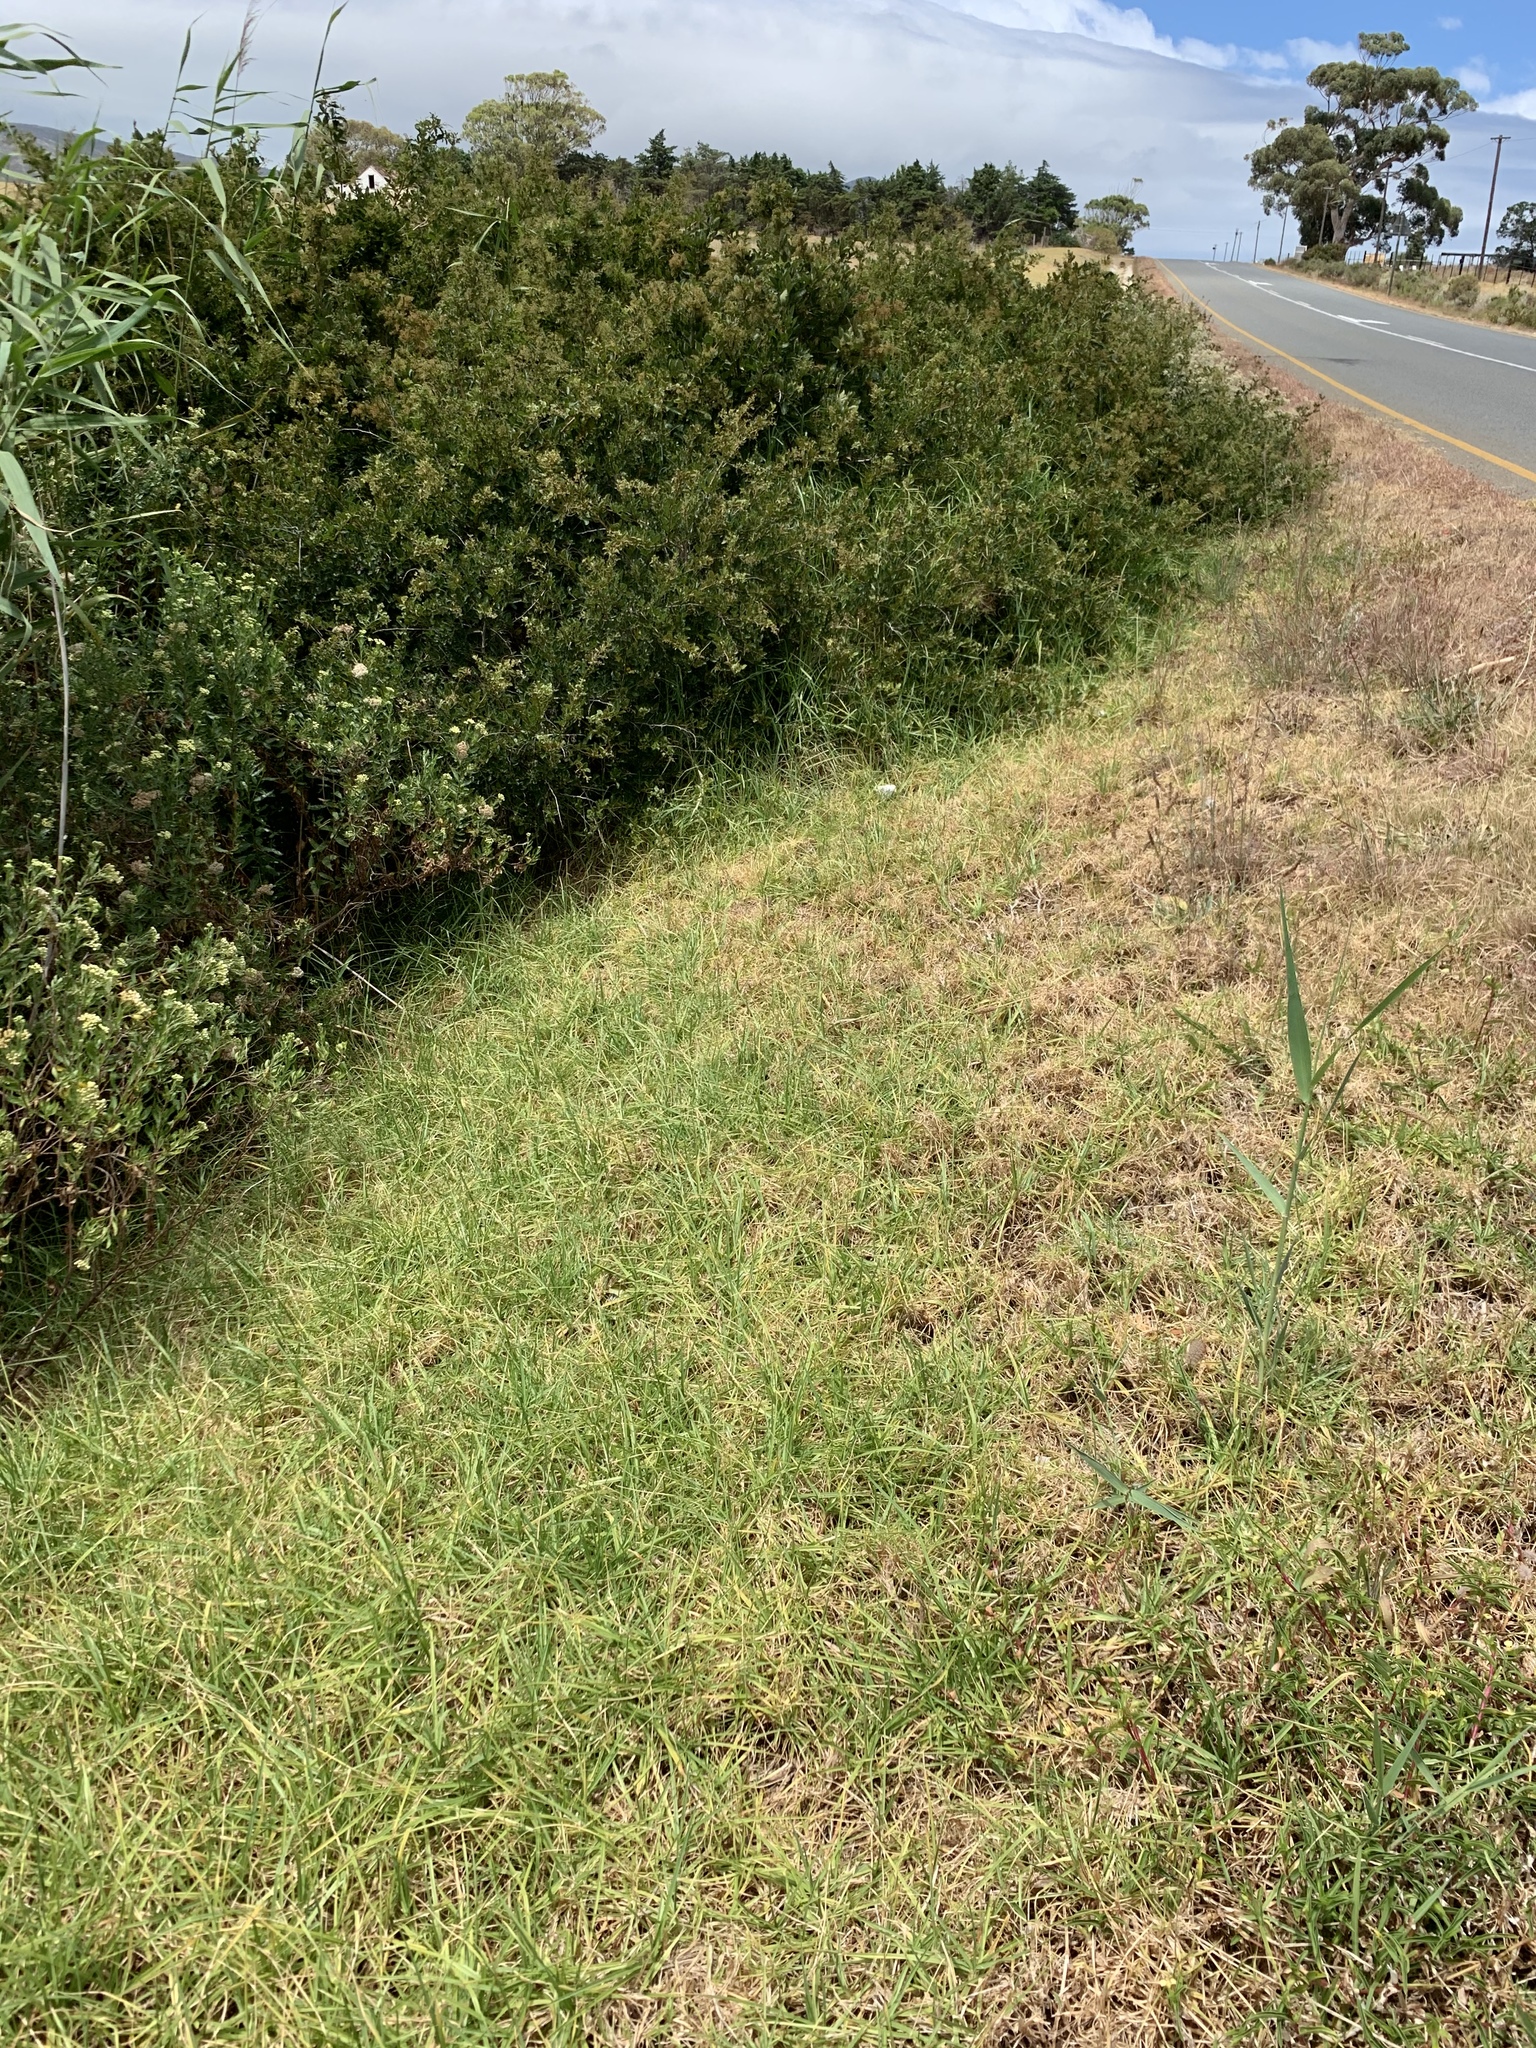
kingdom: Plantae
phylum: Tracheophyta
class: Liliopsida
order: Poales
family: Poaceae
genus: Cenchrus
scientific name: Cenchrus clandestinus
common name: Kikuyugrass
